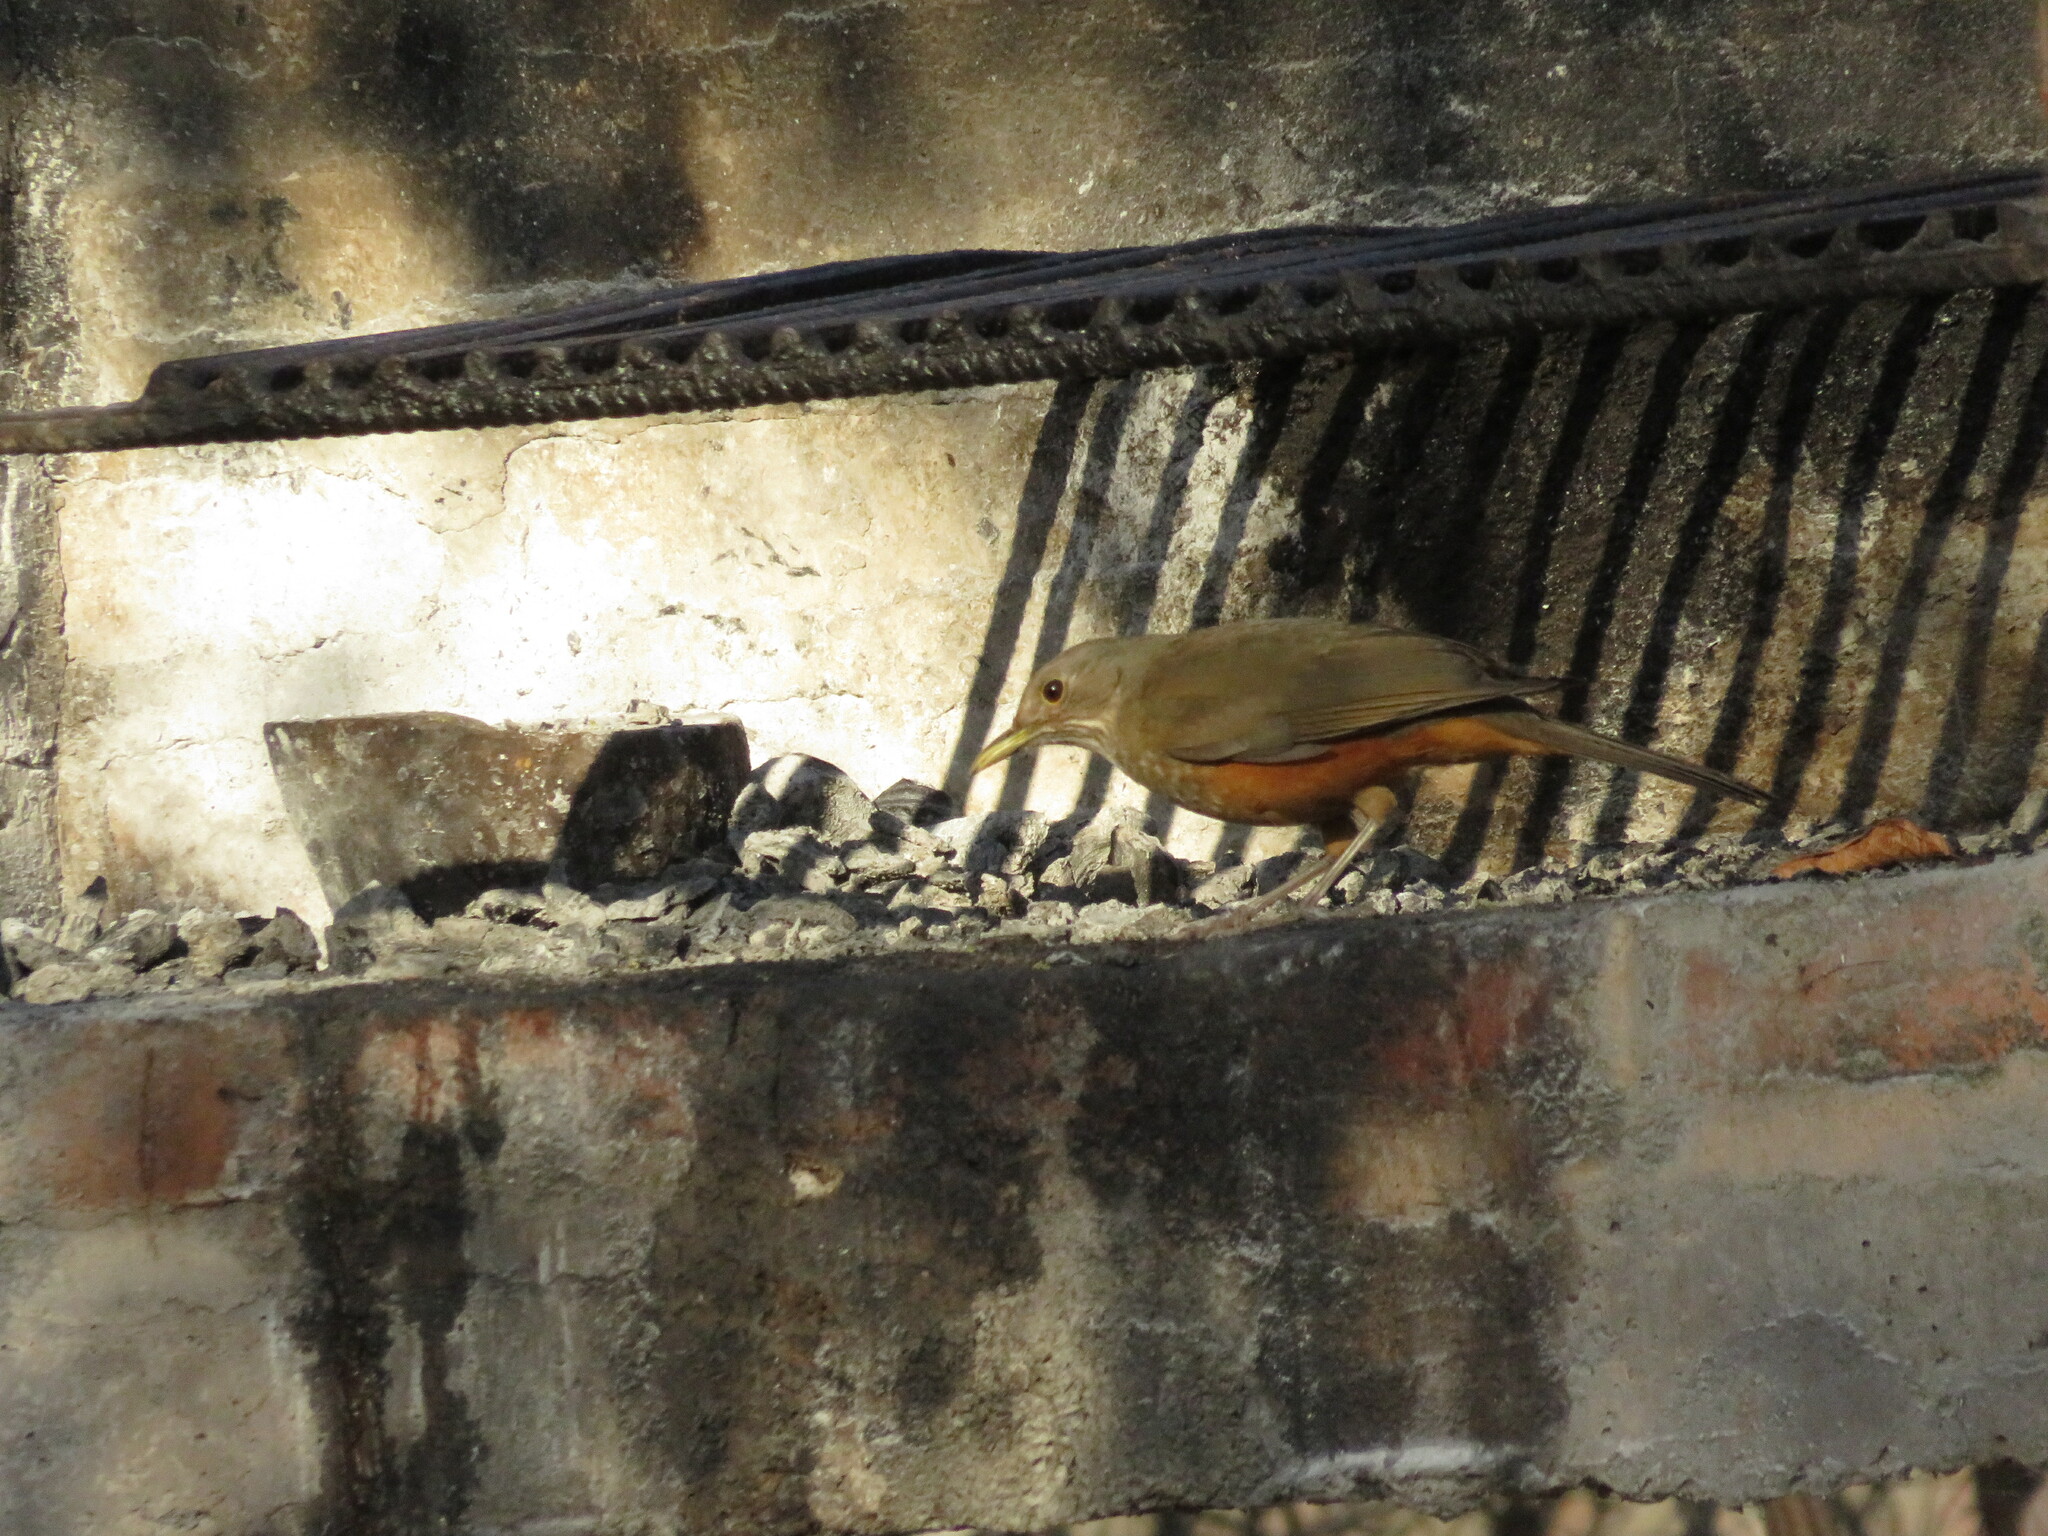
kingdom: Animalia
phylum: Chordata
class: Aves
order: Passeriformes
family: Turdidae
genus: Turdus
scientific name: Turdus rufiventris
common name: Rufous-bellied thrush
